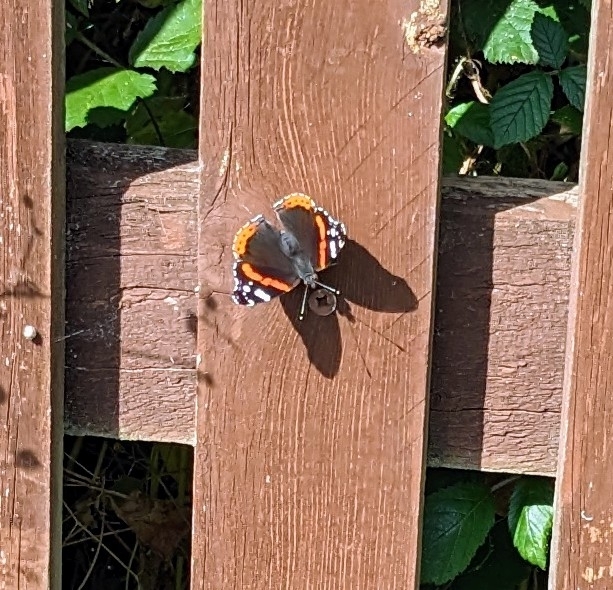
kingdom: Animalia
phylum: Arthropoda
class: Insecta
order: Lepidoptera
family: Nymphalidae
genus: Vanessa
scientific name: Vanessa atalanta
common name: Red admiral
